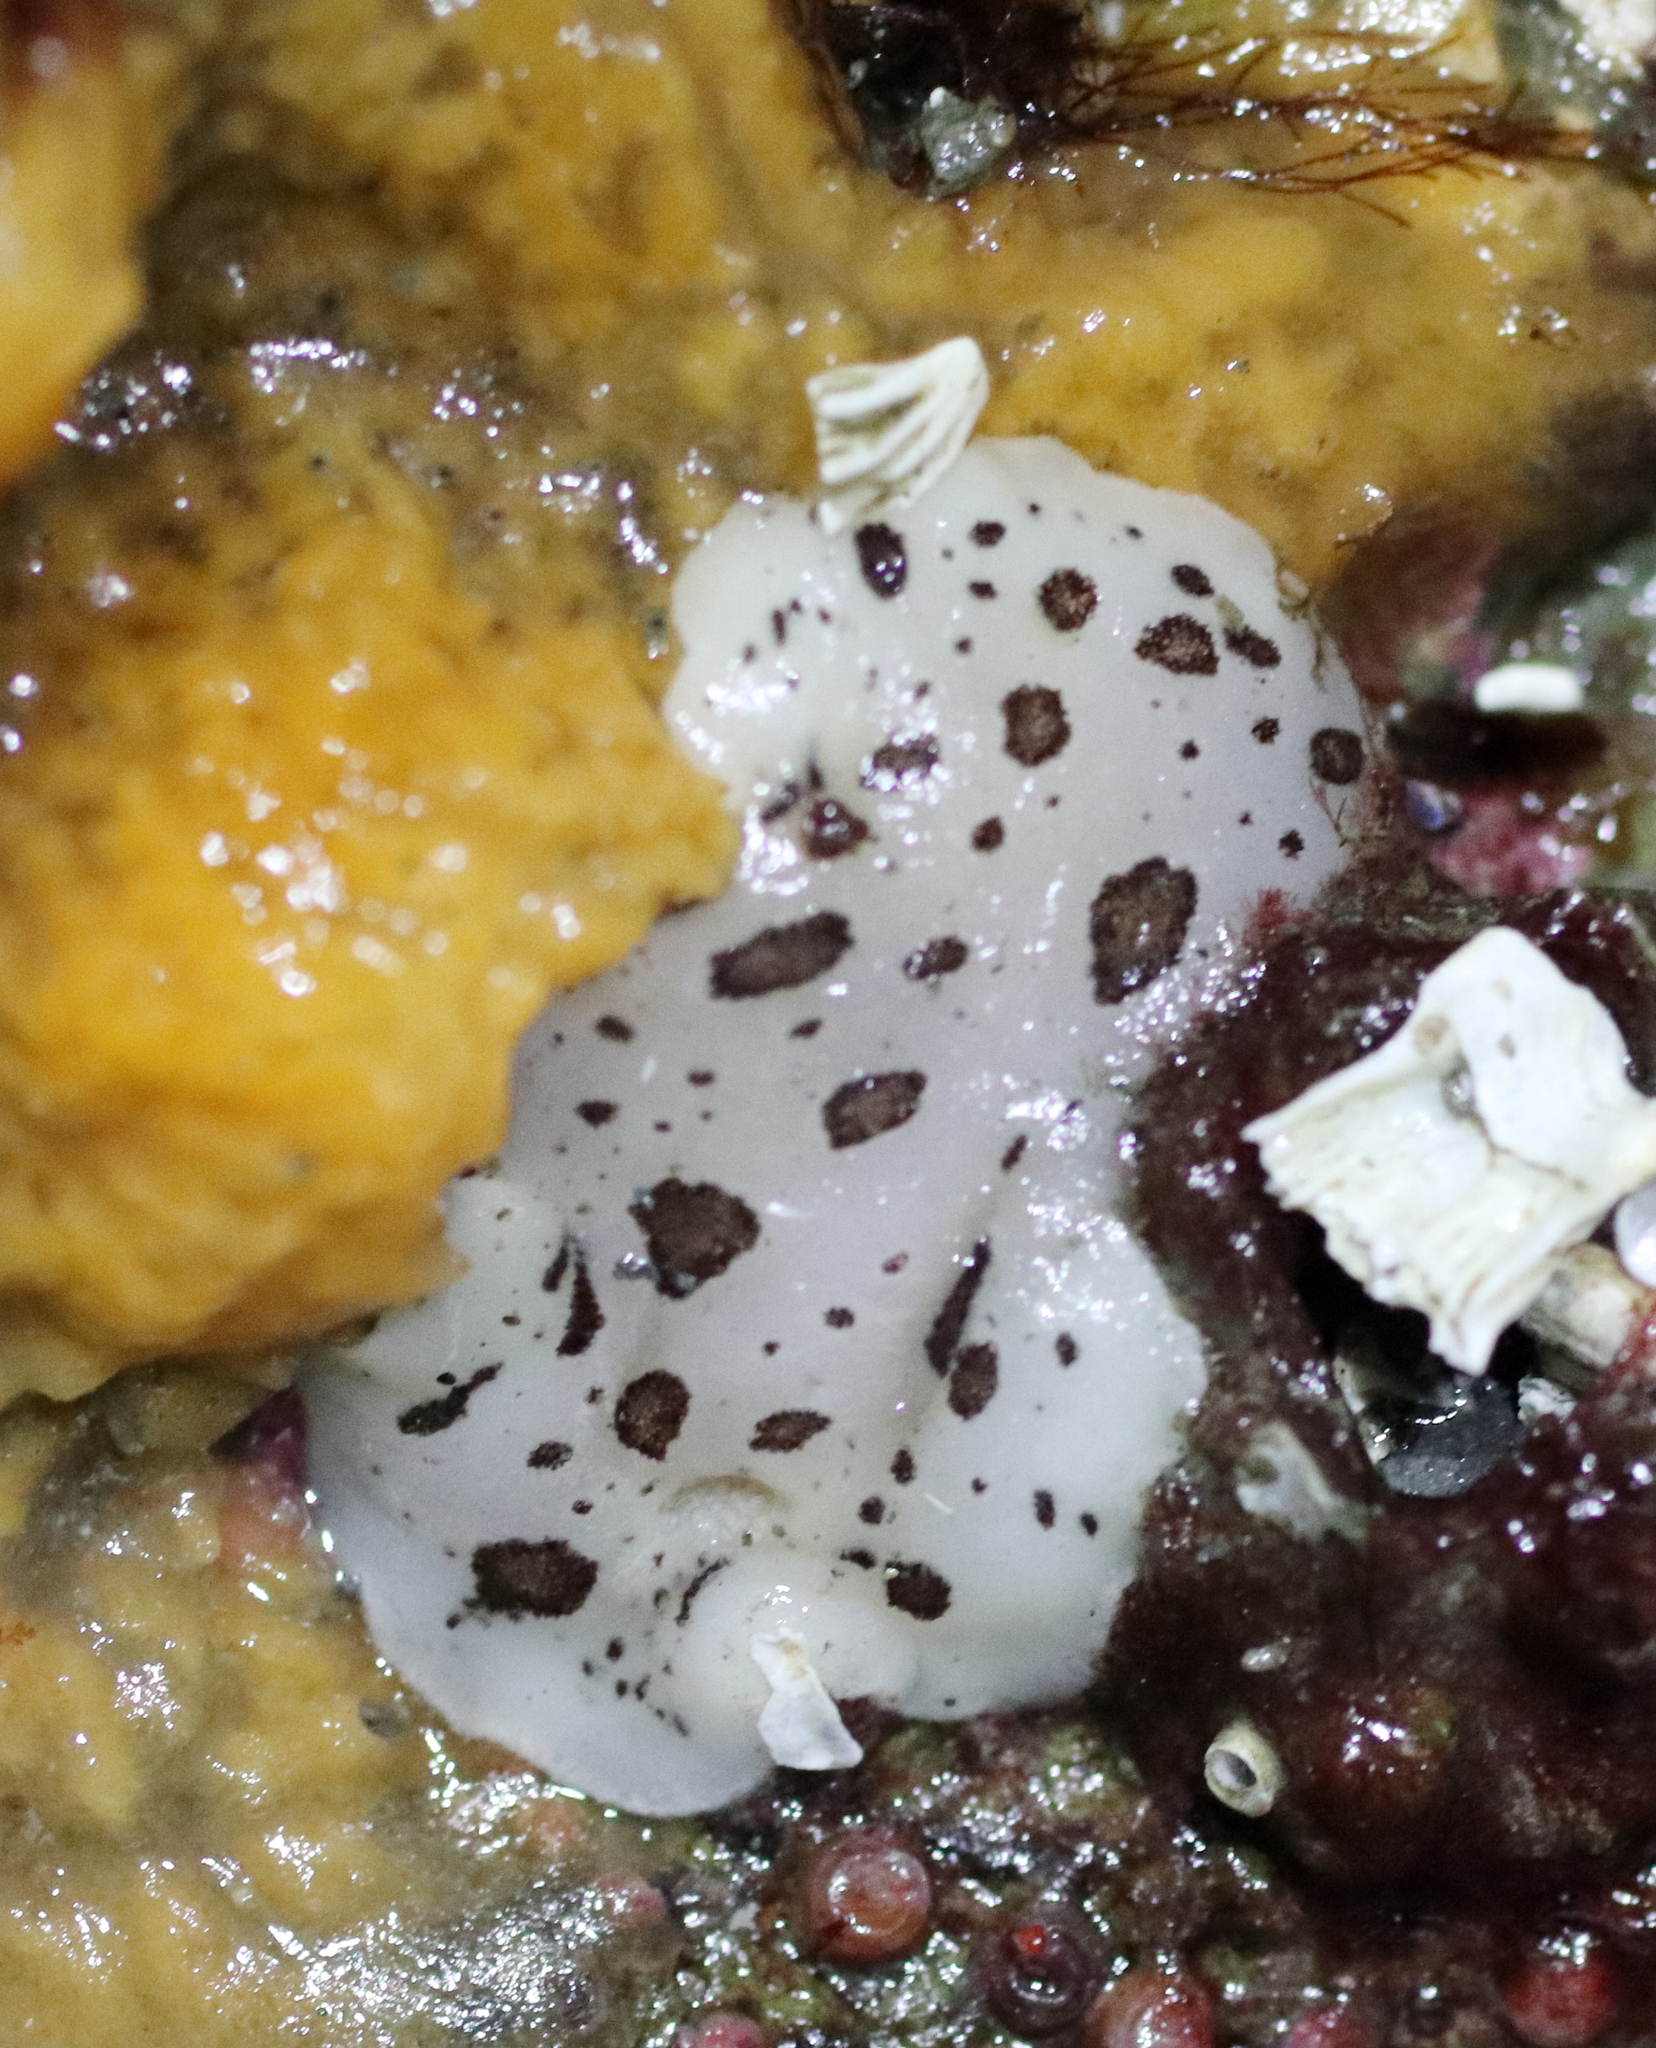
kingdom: Animalia
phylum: Mollusca
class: Gastropoda
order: Nudibranchia
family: Discodorididae
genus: Diaulula
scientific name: Diaulula odonoghuei
